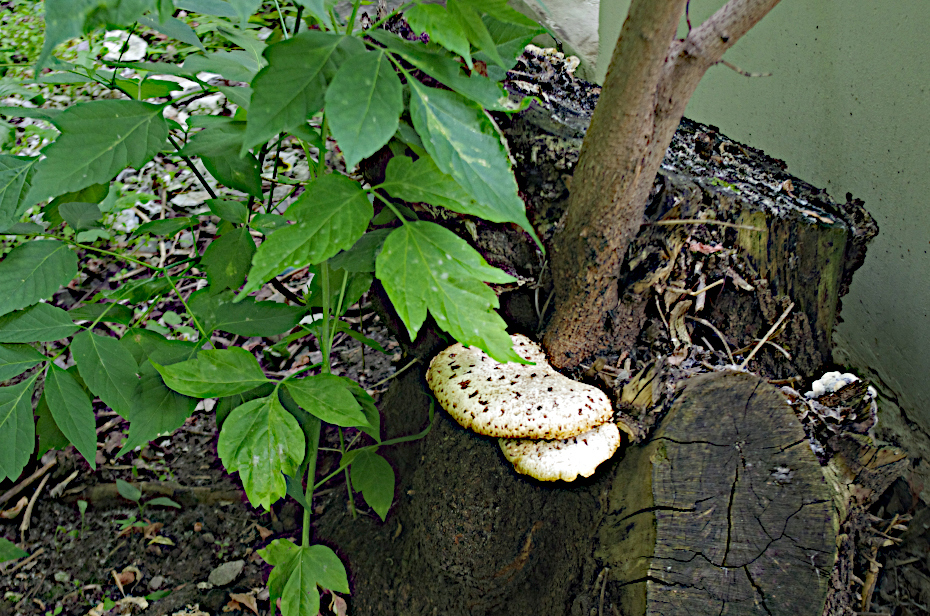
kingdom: Plantae
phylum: Tracheophyta
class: Magnoliopsida
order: Sapindales
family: Sapindaceae
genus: Acer
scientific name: Acer negundo
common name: Ashleaf maple
